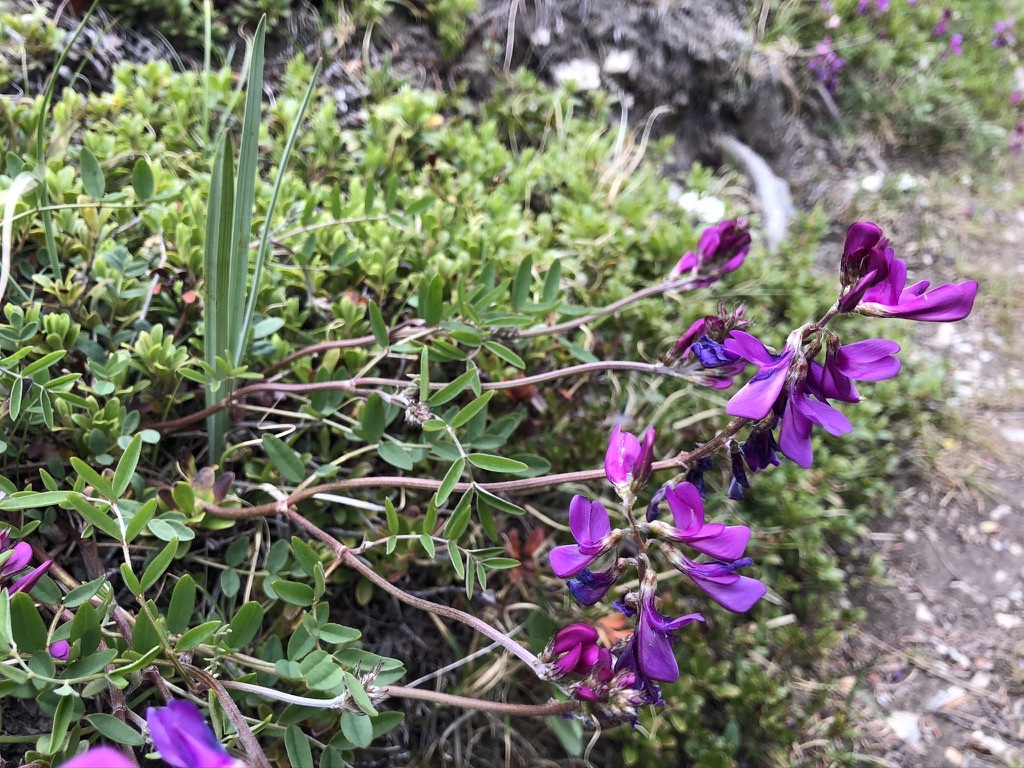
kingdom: Plantae
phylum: Tracheophyta
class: Magnoliopsida
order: Fabales
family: Fabaceae
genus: Hedysarum
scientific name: Hedysarum boreale
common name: Northern sweet-vetch
